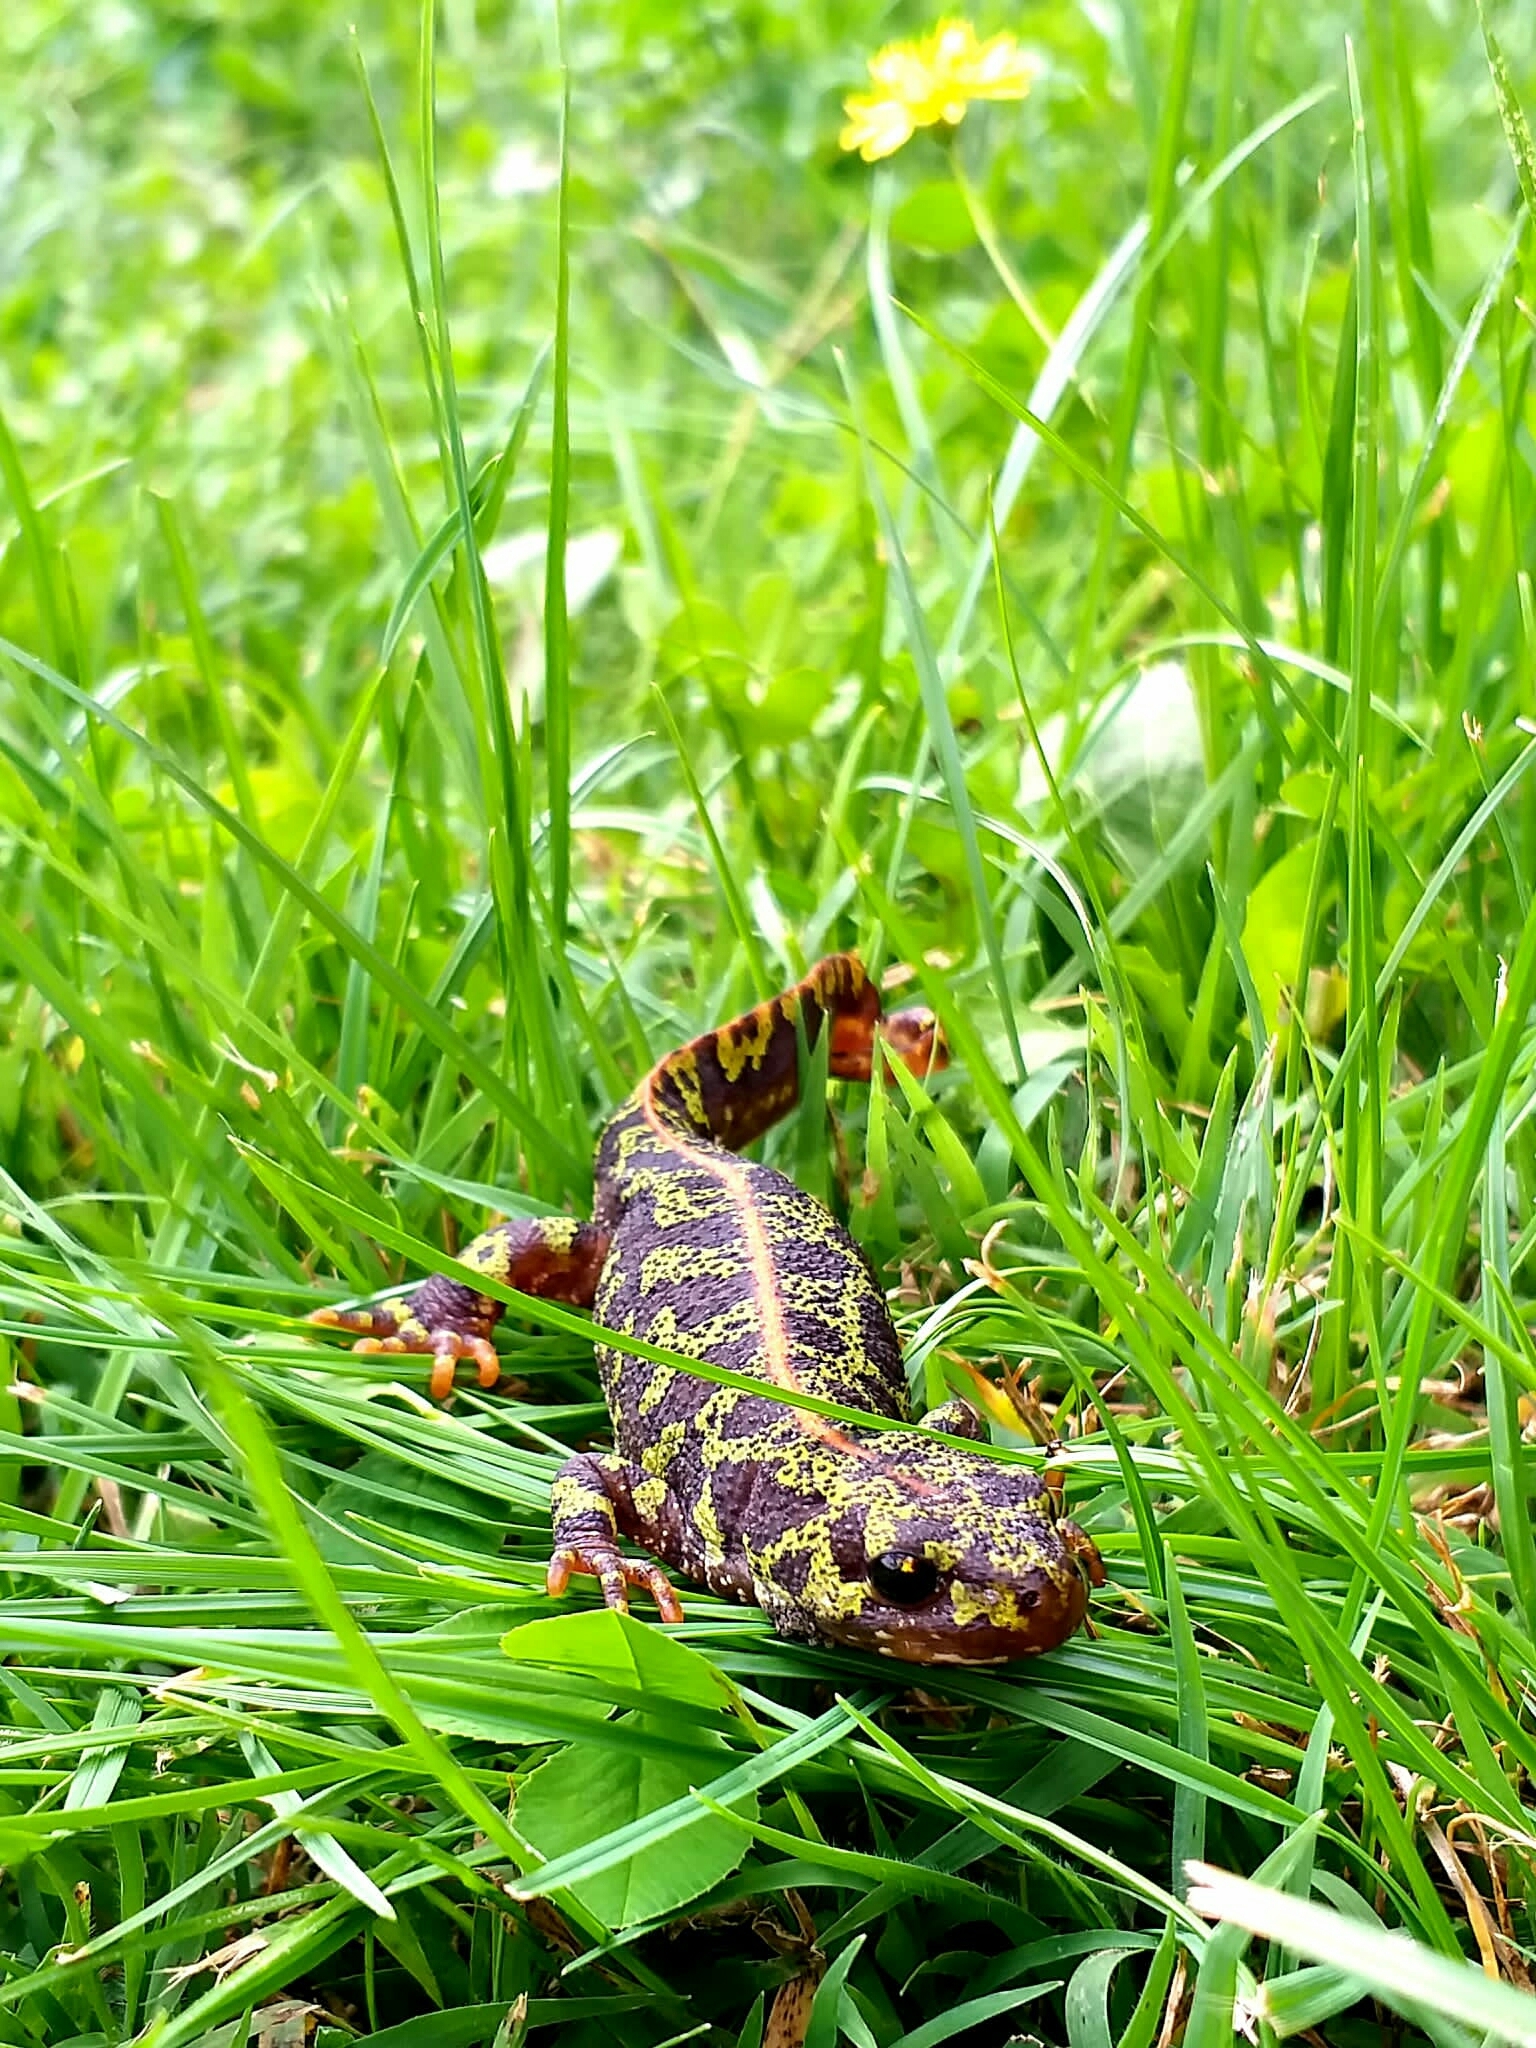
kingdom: Animalia
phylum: Chordata
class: Amphibia
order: Caudata
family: Salamandridae
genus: Triturus
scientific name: Triturus marmoratus
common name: Marbled newt
